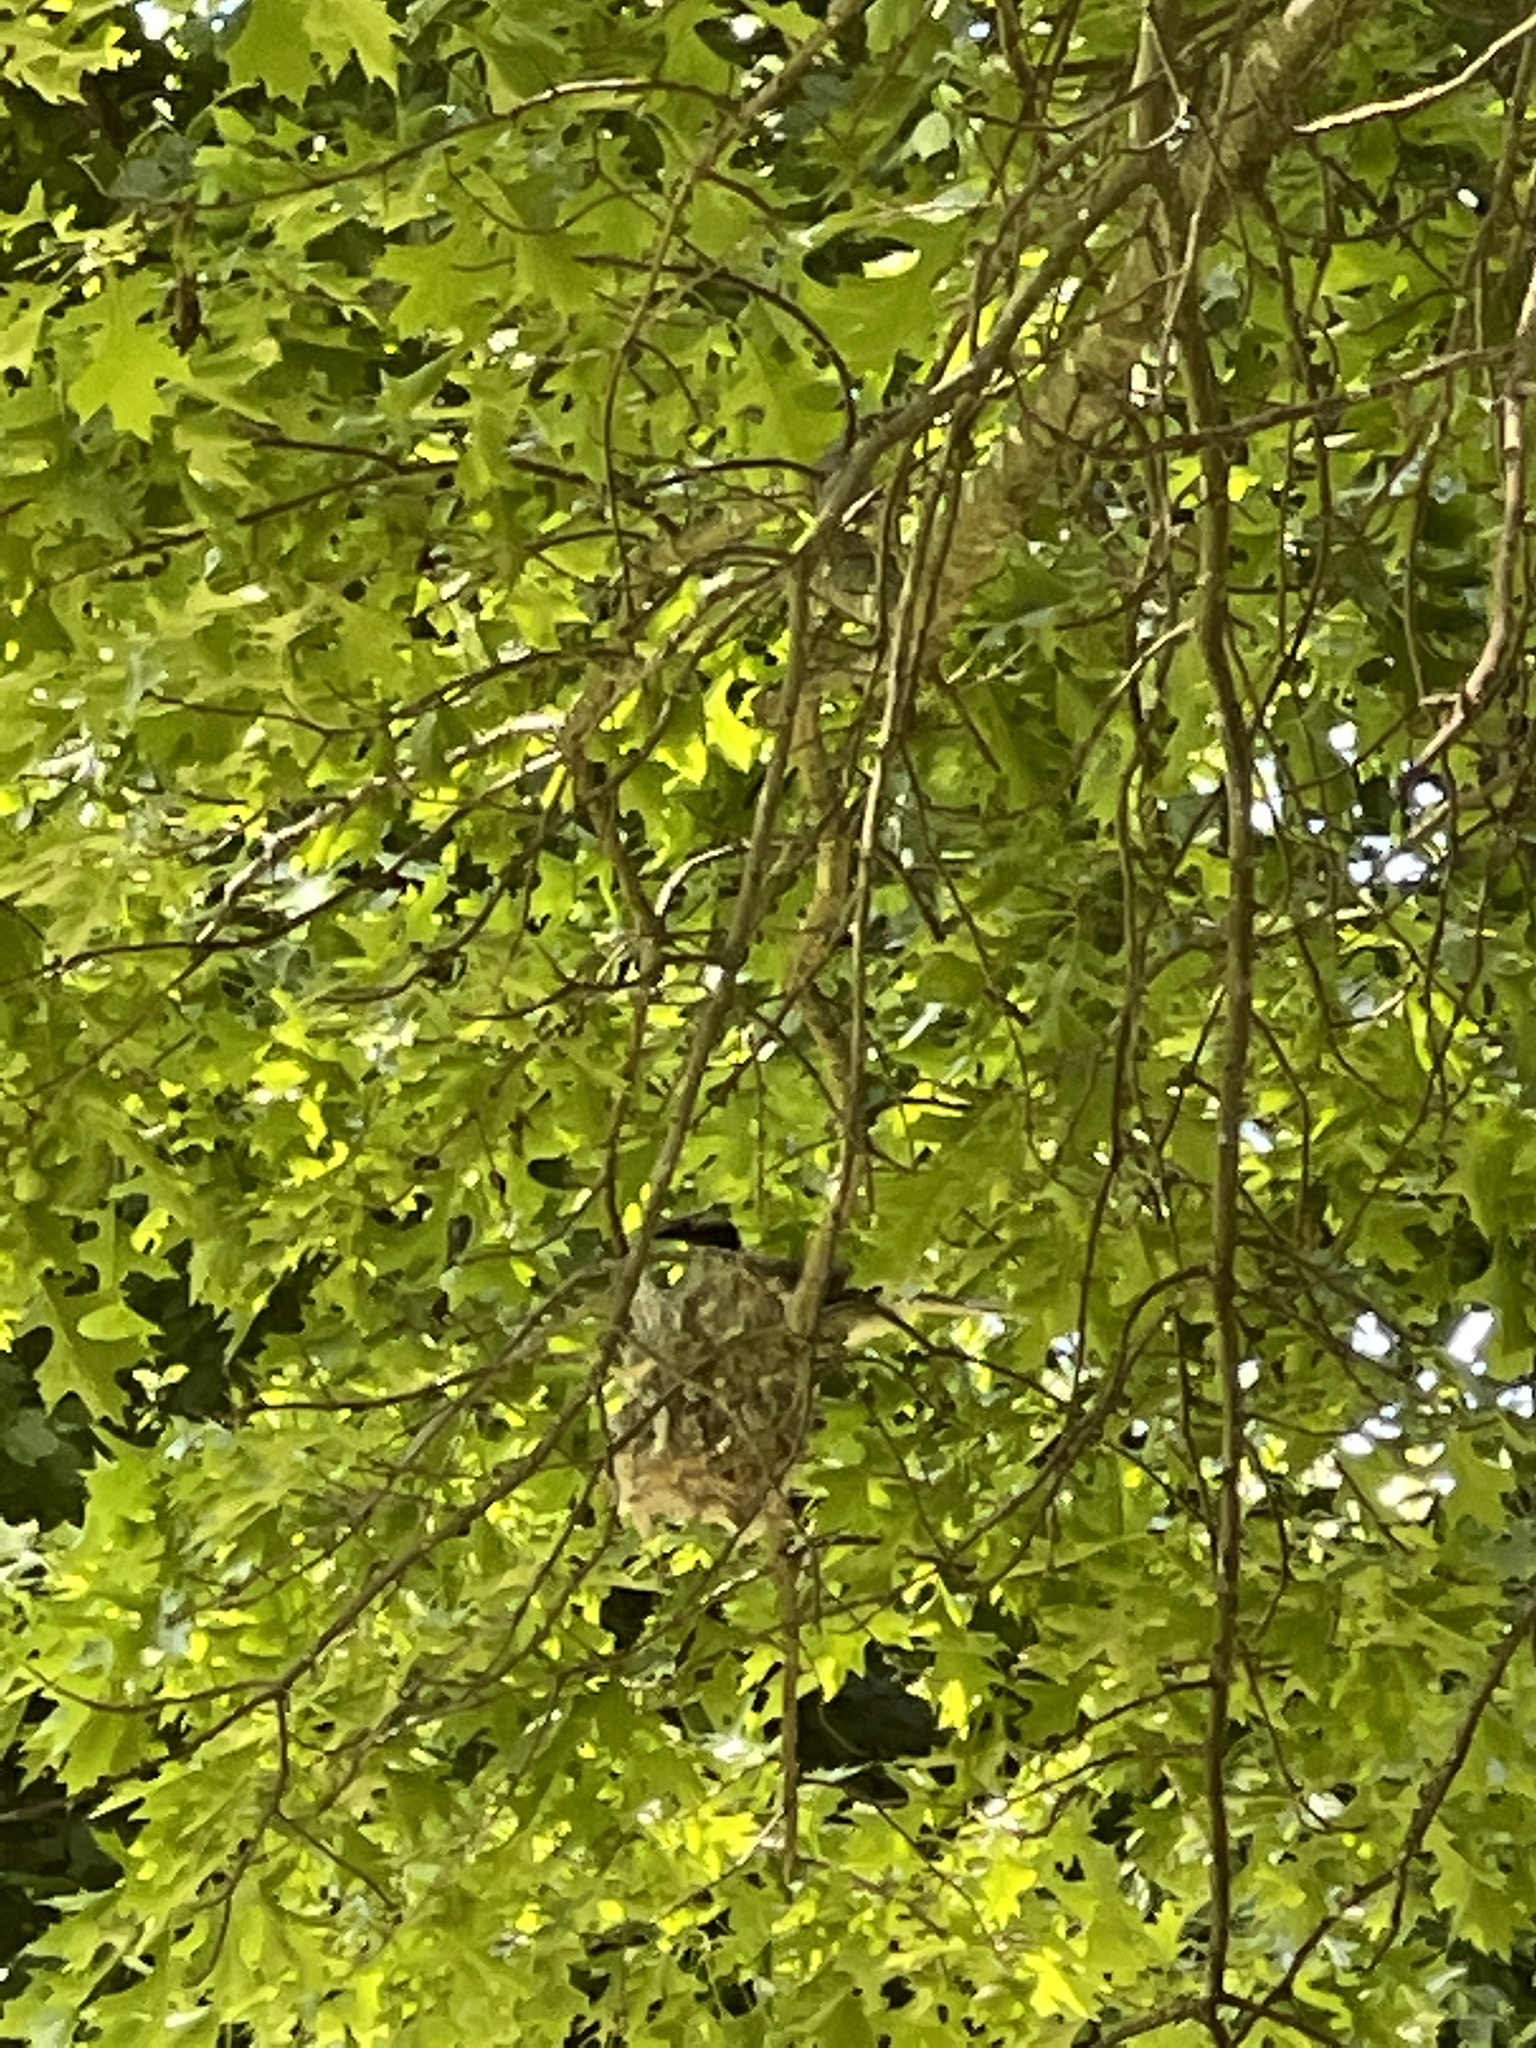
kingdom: Animalia
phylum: Chordata
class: Aves
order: Passeriformes
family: Meliphagidae
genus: Philemon
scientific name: Philemon corniculatus
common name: Noisy friarbird
